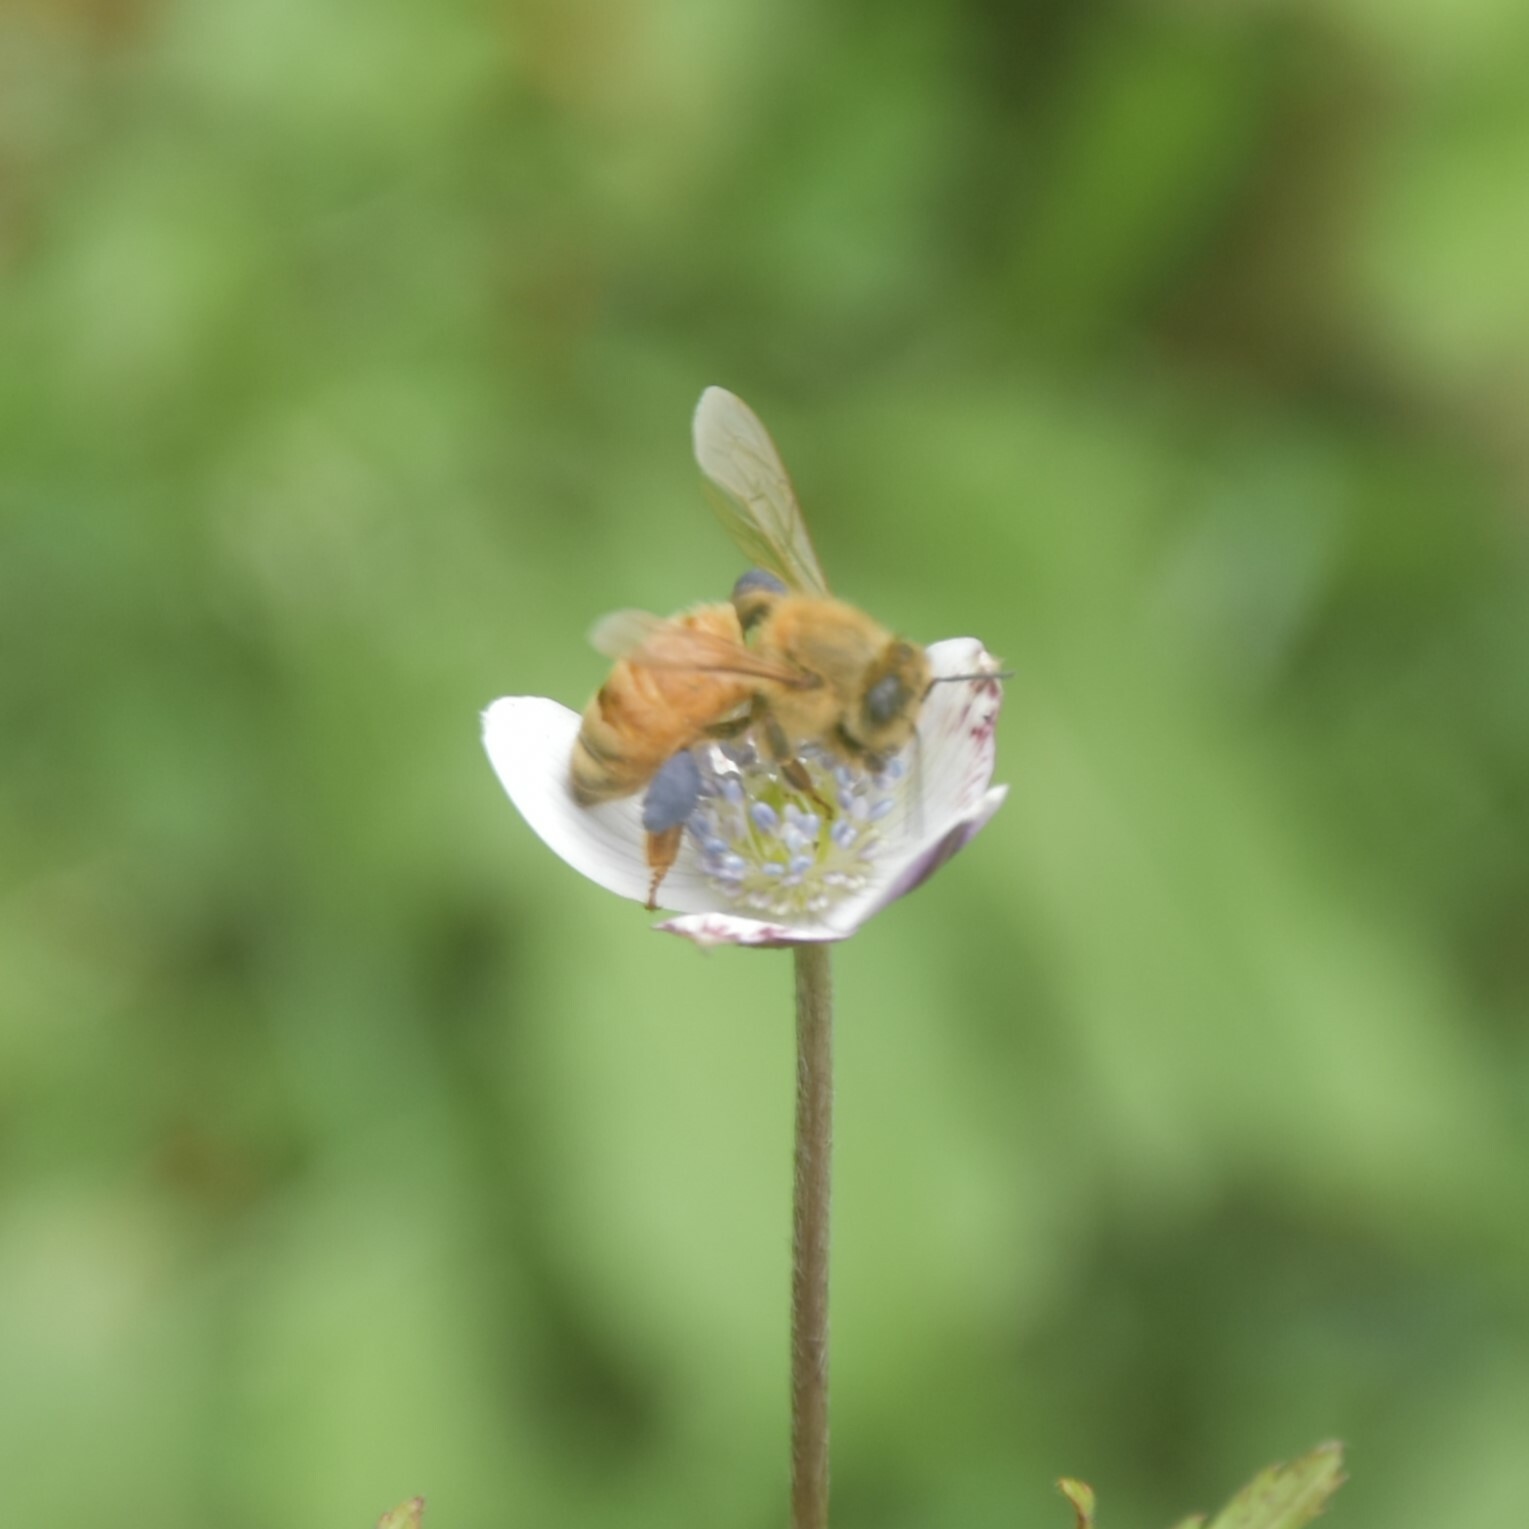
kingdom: Animalia
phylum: Arthropoda
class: Insecta
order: Hymenoptera
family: Apidae
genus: Apis
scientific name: Apis mellifera
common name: Honey bee
